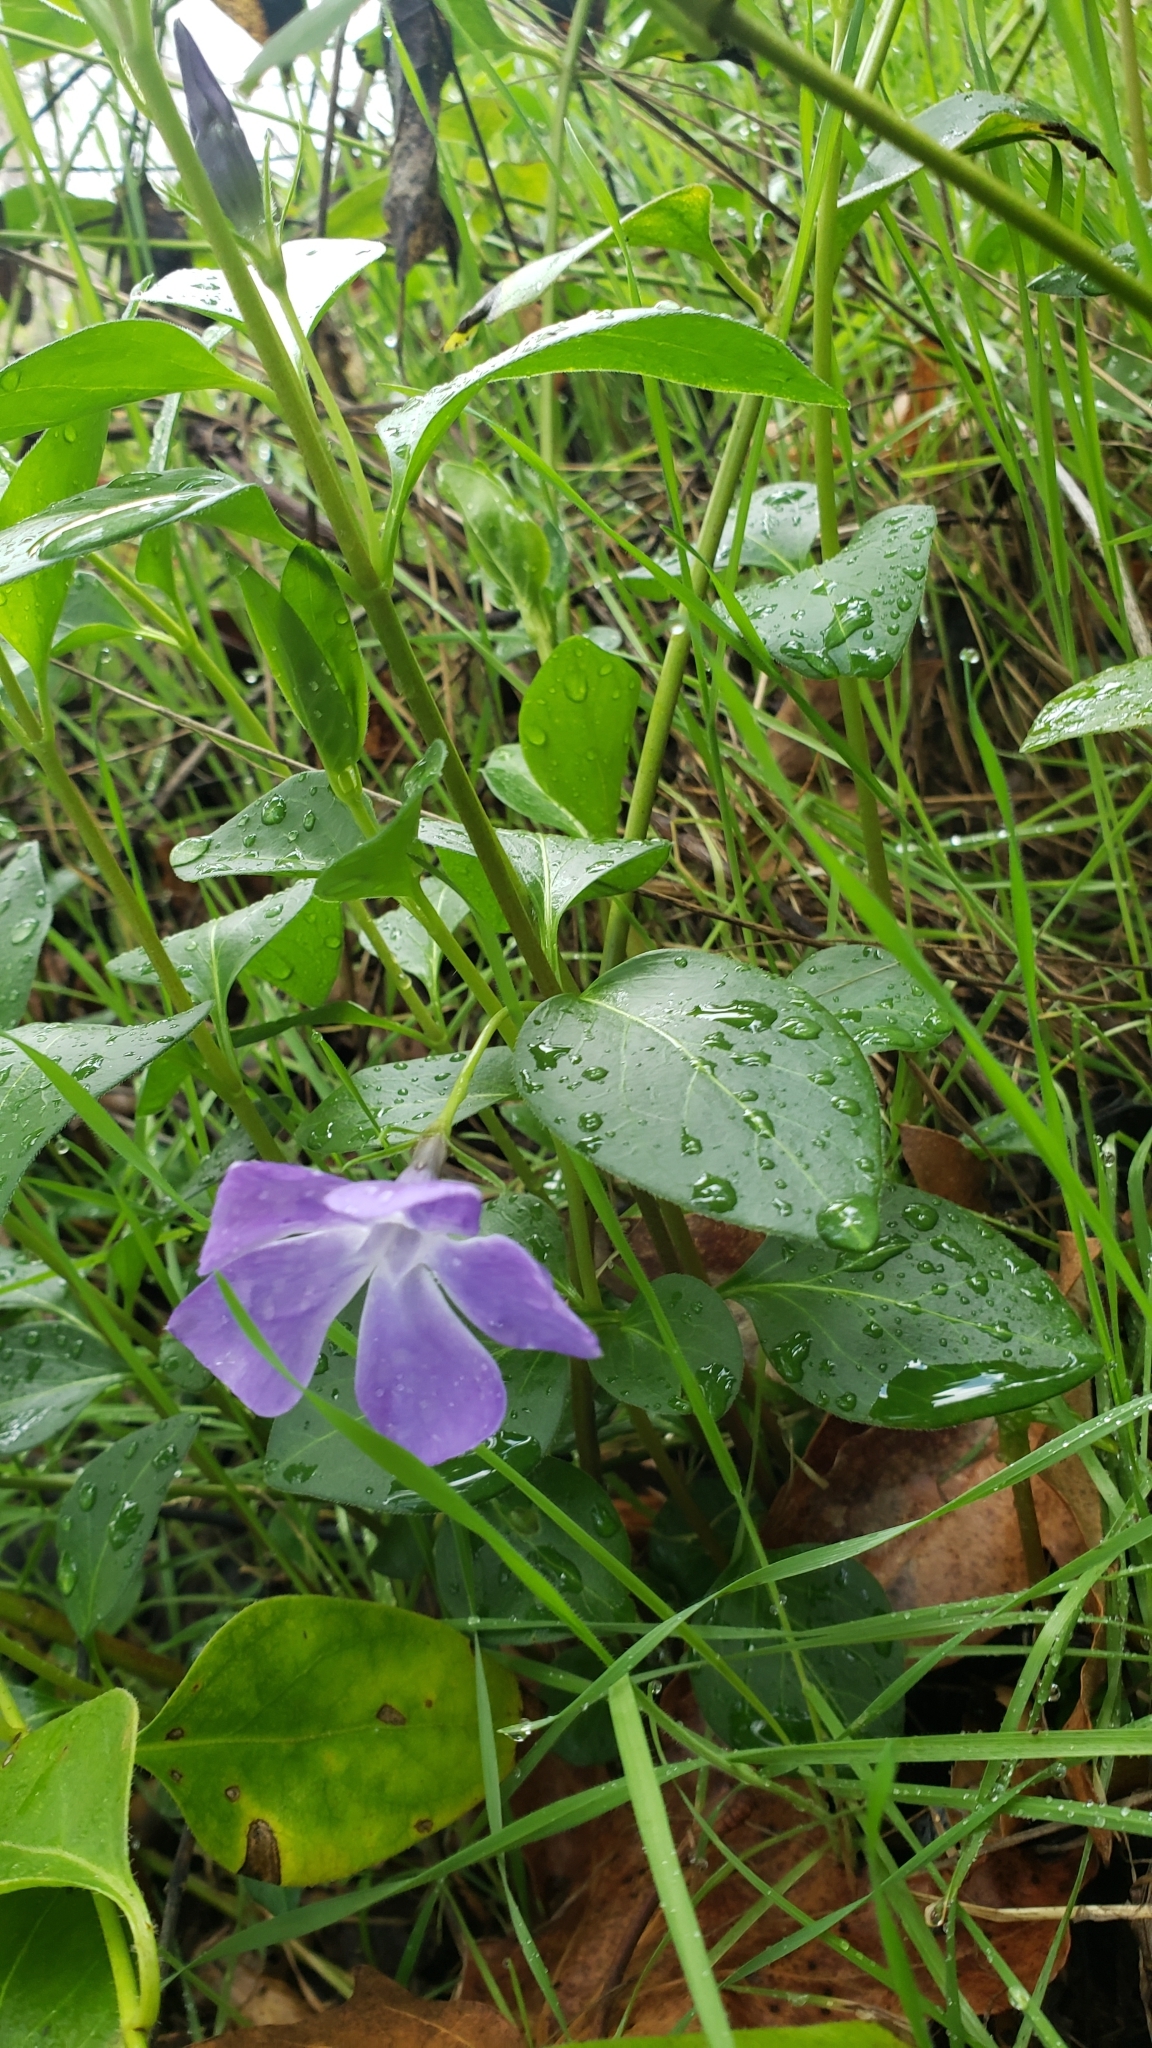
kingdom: Plantae
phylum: Tracheophyta
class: Magnoliopsida
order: Gentianales
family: Apocynaceae
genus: Vinca
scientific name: Vinca major
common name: Greater periwinkle
